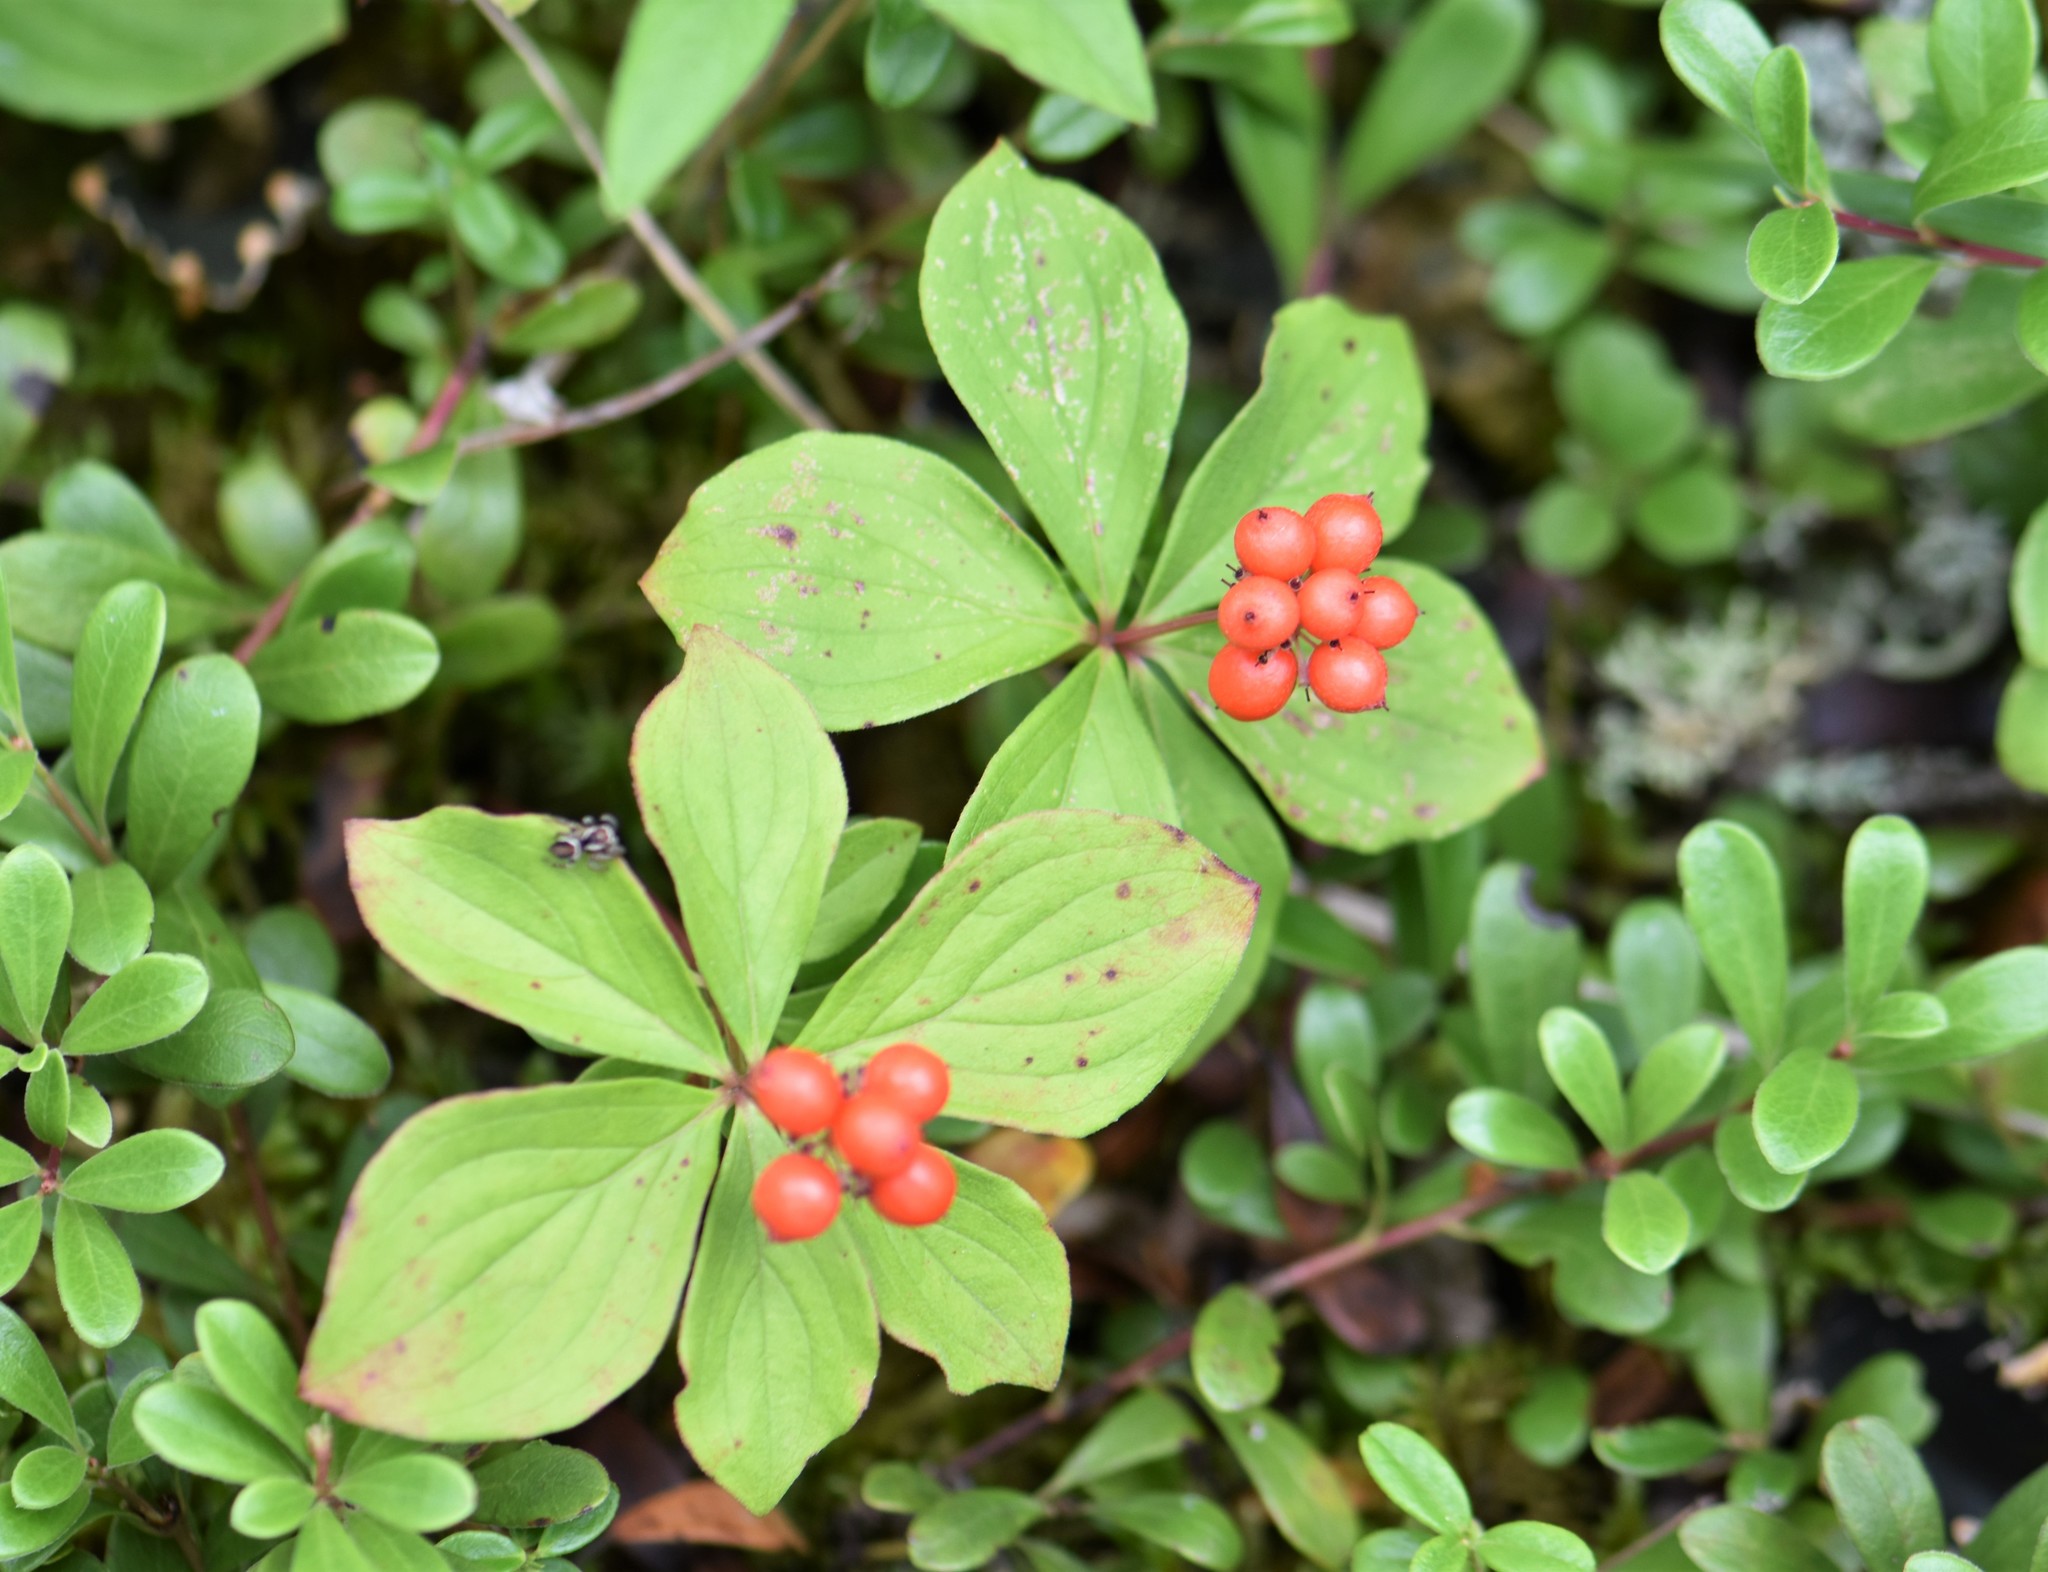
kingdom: Plantae
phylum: Tracheophyta
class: Magnoliopsida
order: Cornales
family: Cornaceae
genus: Cornus
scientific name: Cornus canadensis
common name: Creeping dogwood
